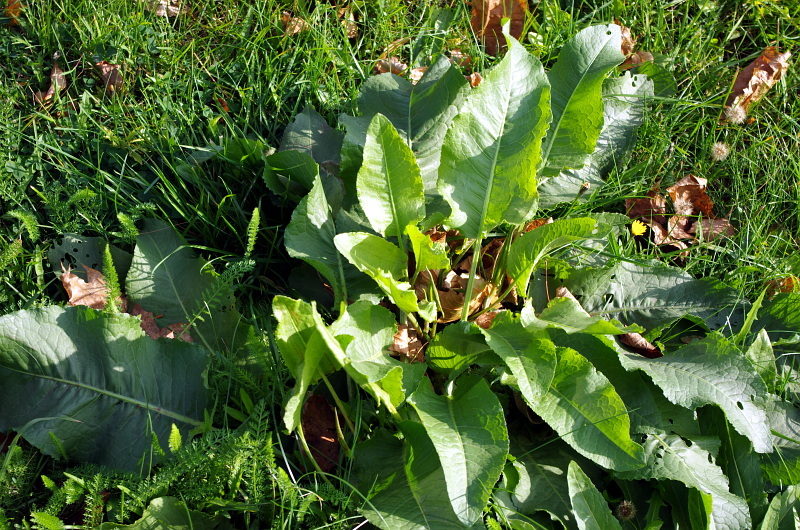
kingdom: Plantae
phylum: Tracheophyta
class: Magnoliopsida
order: Caryophyllales
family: Polygonaceae
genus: Rumex
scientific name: Rumex obtusifolius
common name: Bitter dock
